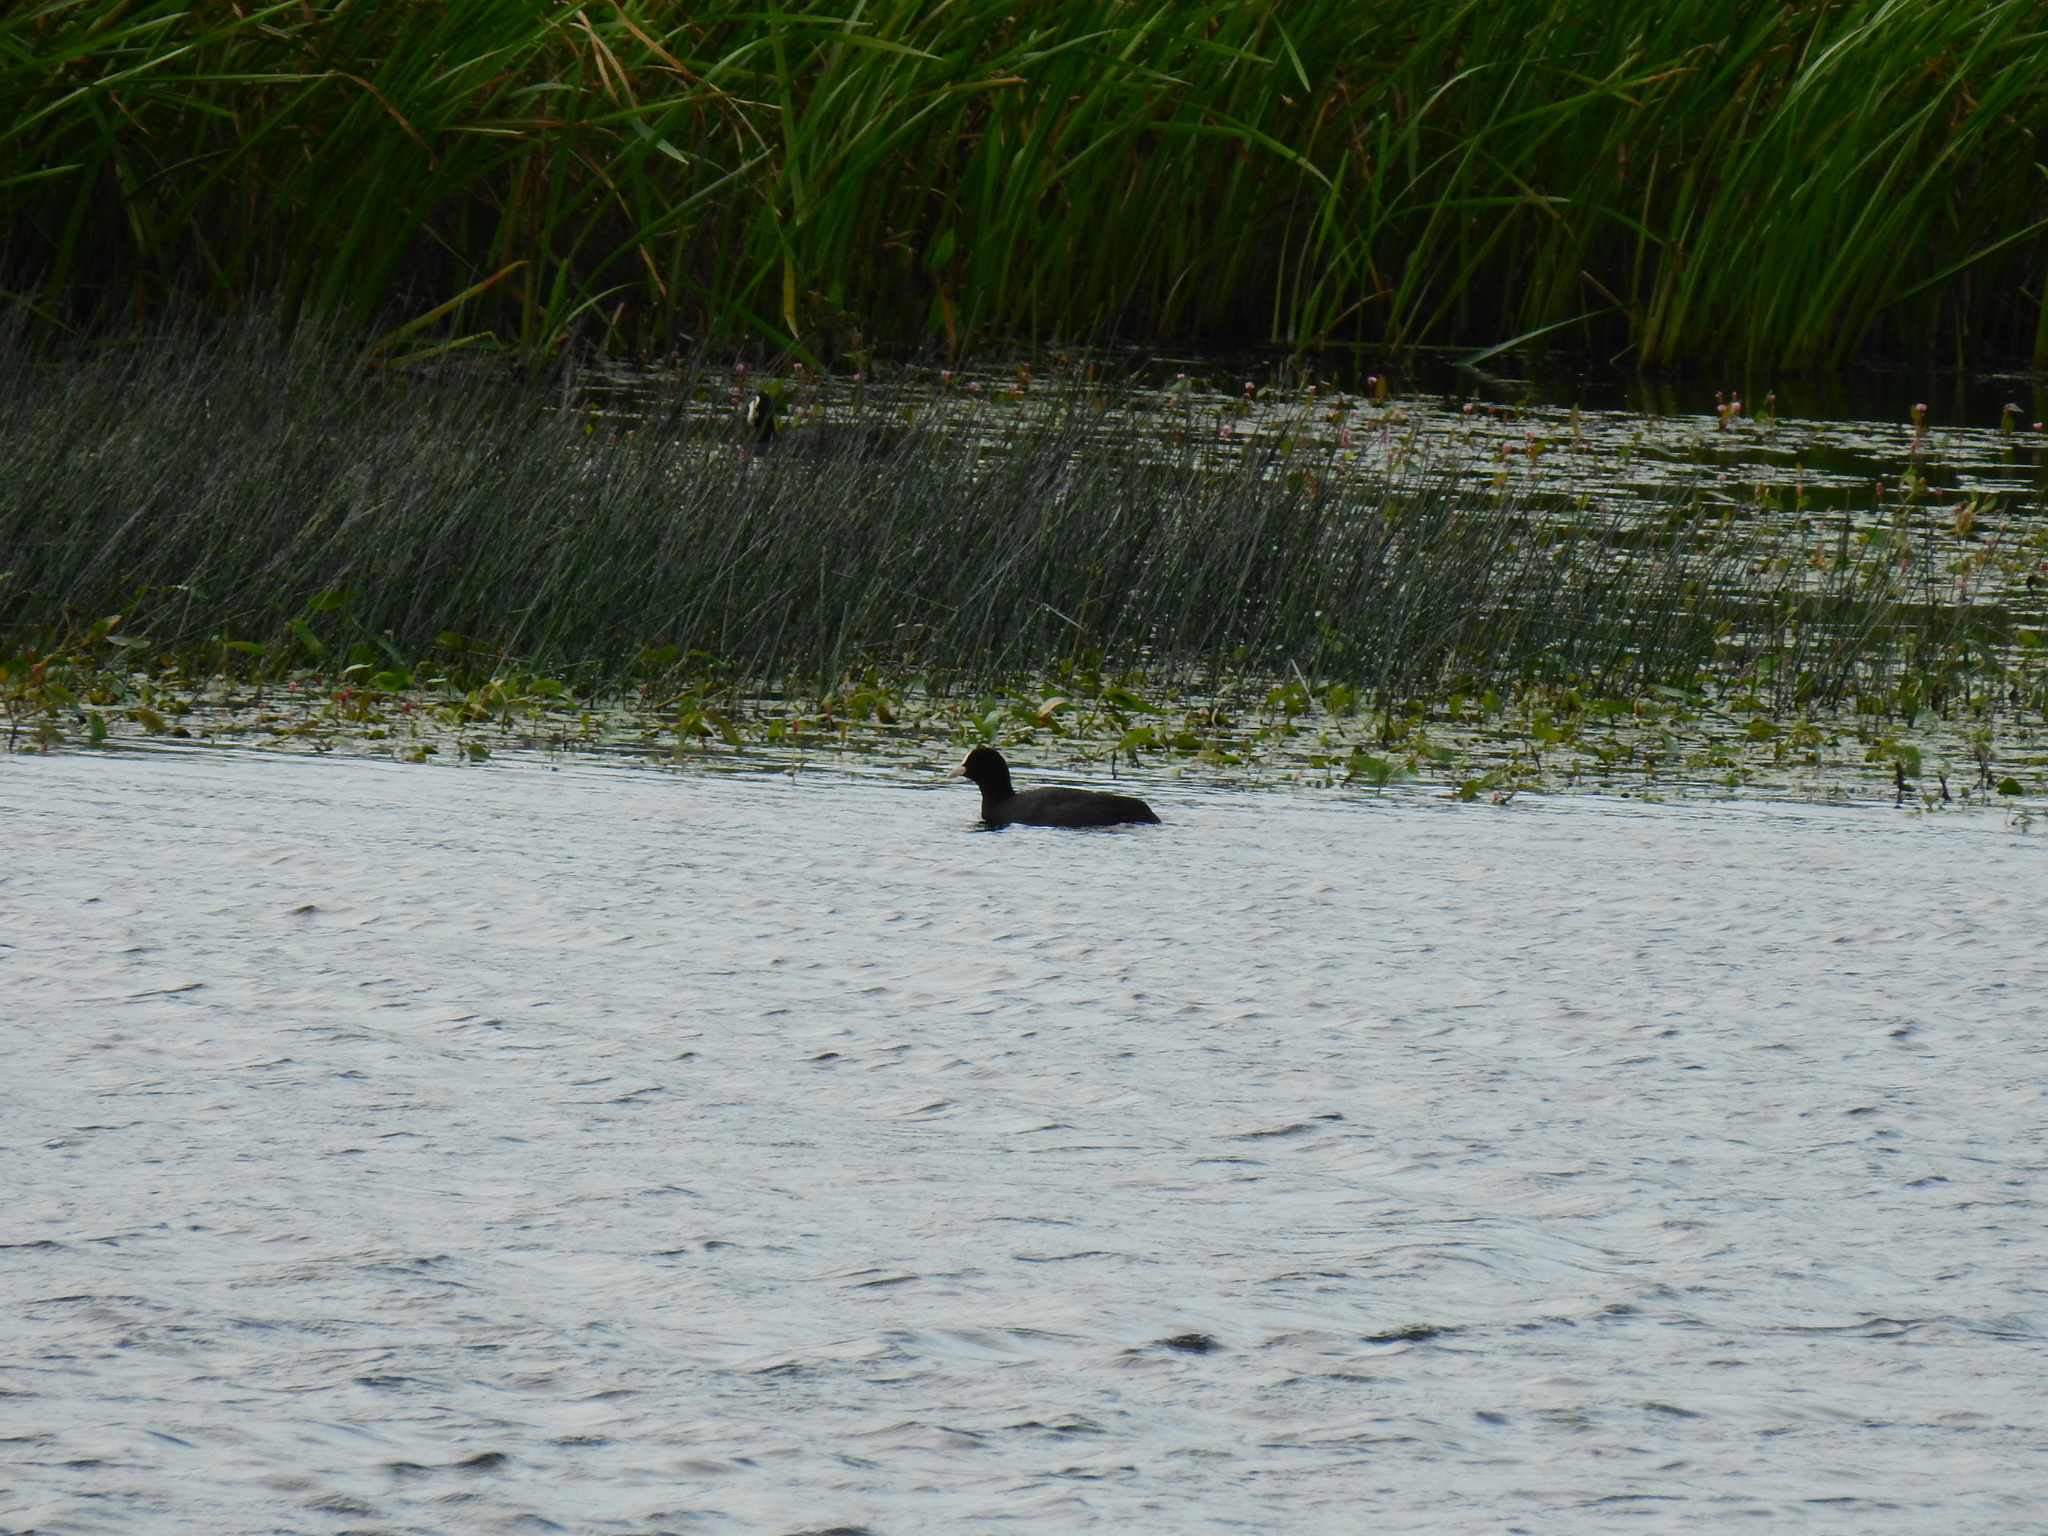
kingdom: Animalia
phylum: Chordata
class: Aves
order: Gruiformes
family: Rallidae
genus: Fulica
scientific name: Fulica atra
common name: Eurasian coot
